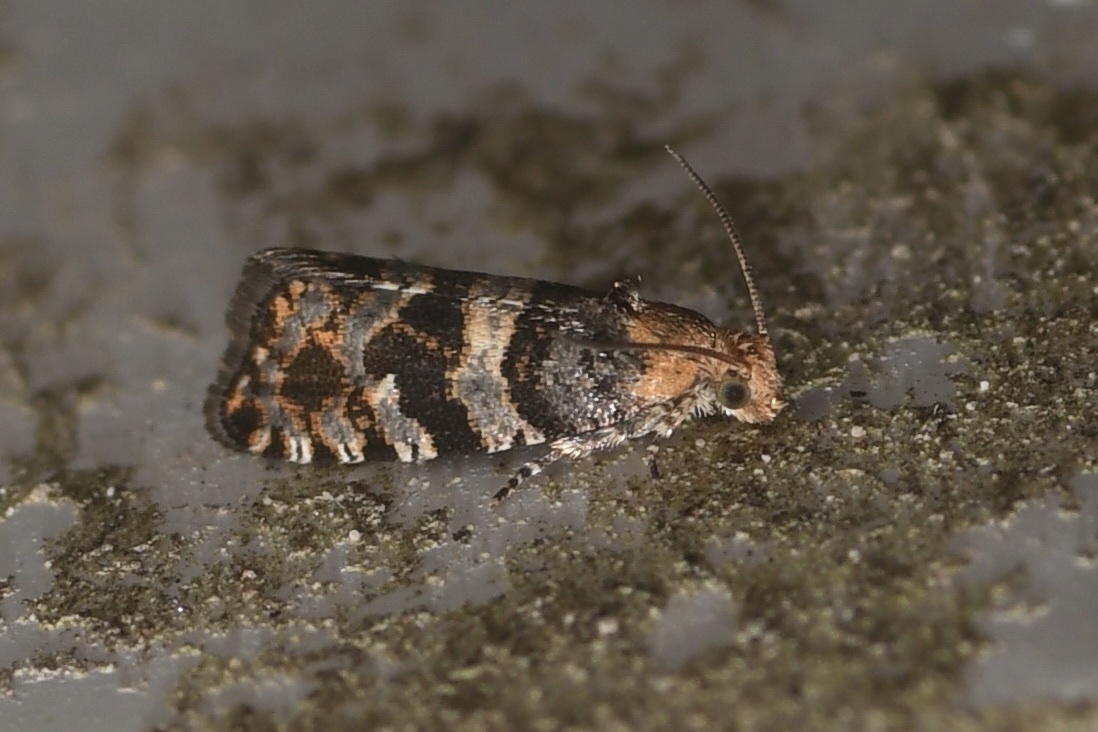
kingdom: Animalia
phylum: Arthropoda
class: Insecta
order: Lepidoptera
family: Tortricidae
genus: Paralobesia
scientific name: Paralobesia palliolana
